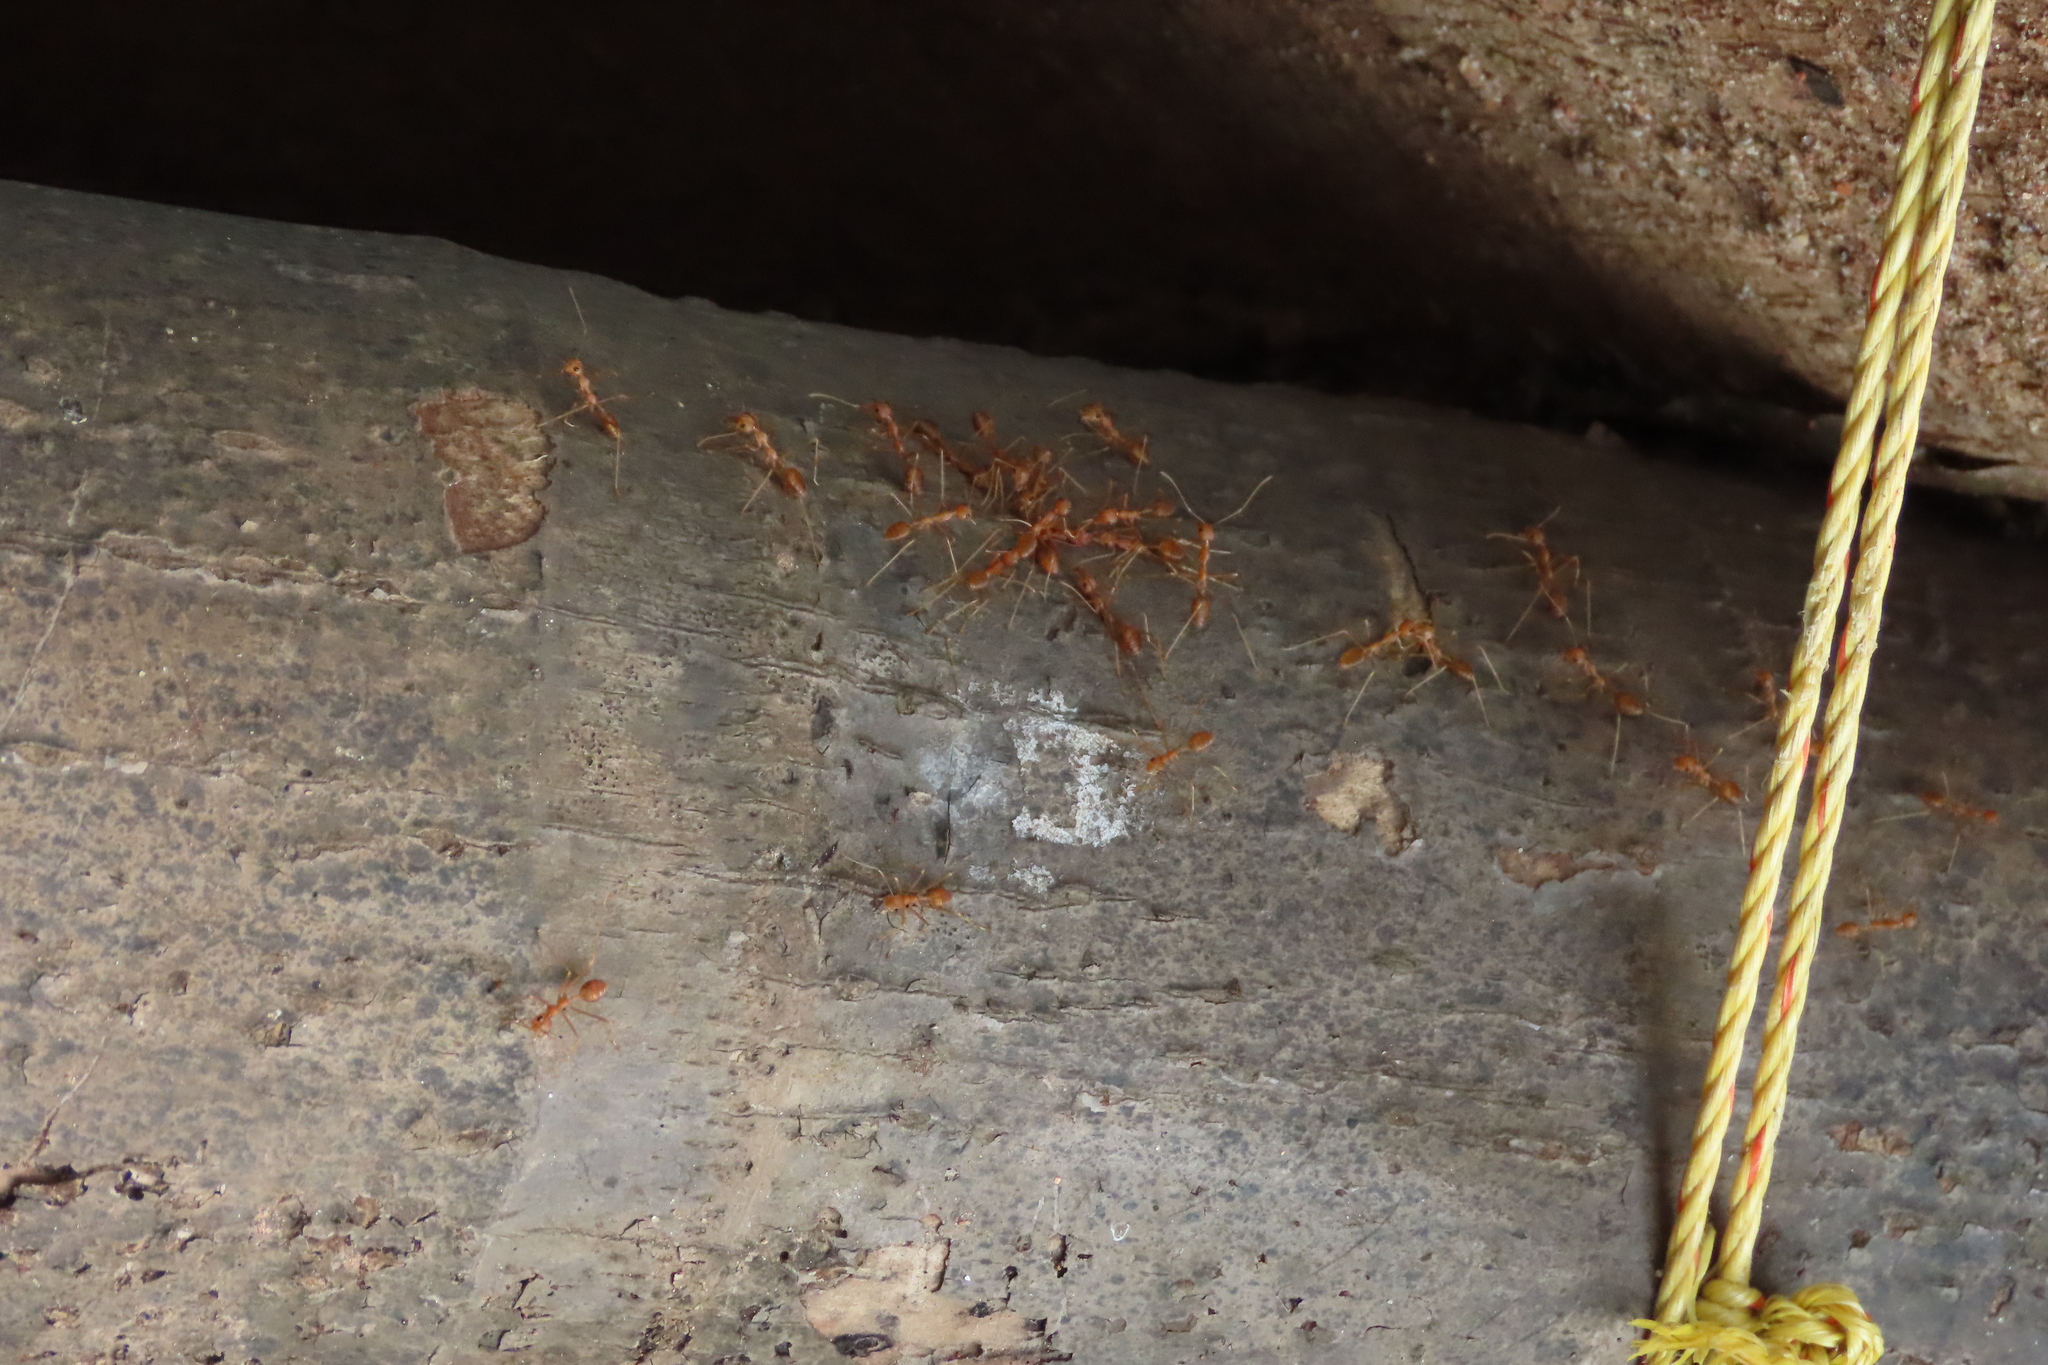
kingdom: Animalia
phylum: Arthropoda
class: Insecta
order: Hymenoptera
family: Formicidae
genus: Oecophylla
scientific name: Oecophylla smaragdina
